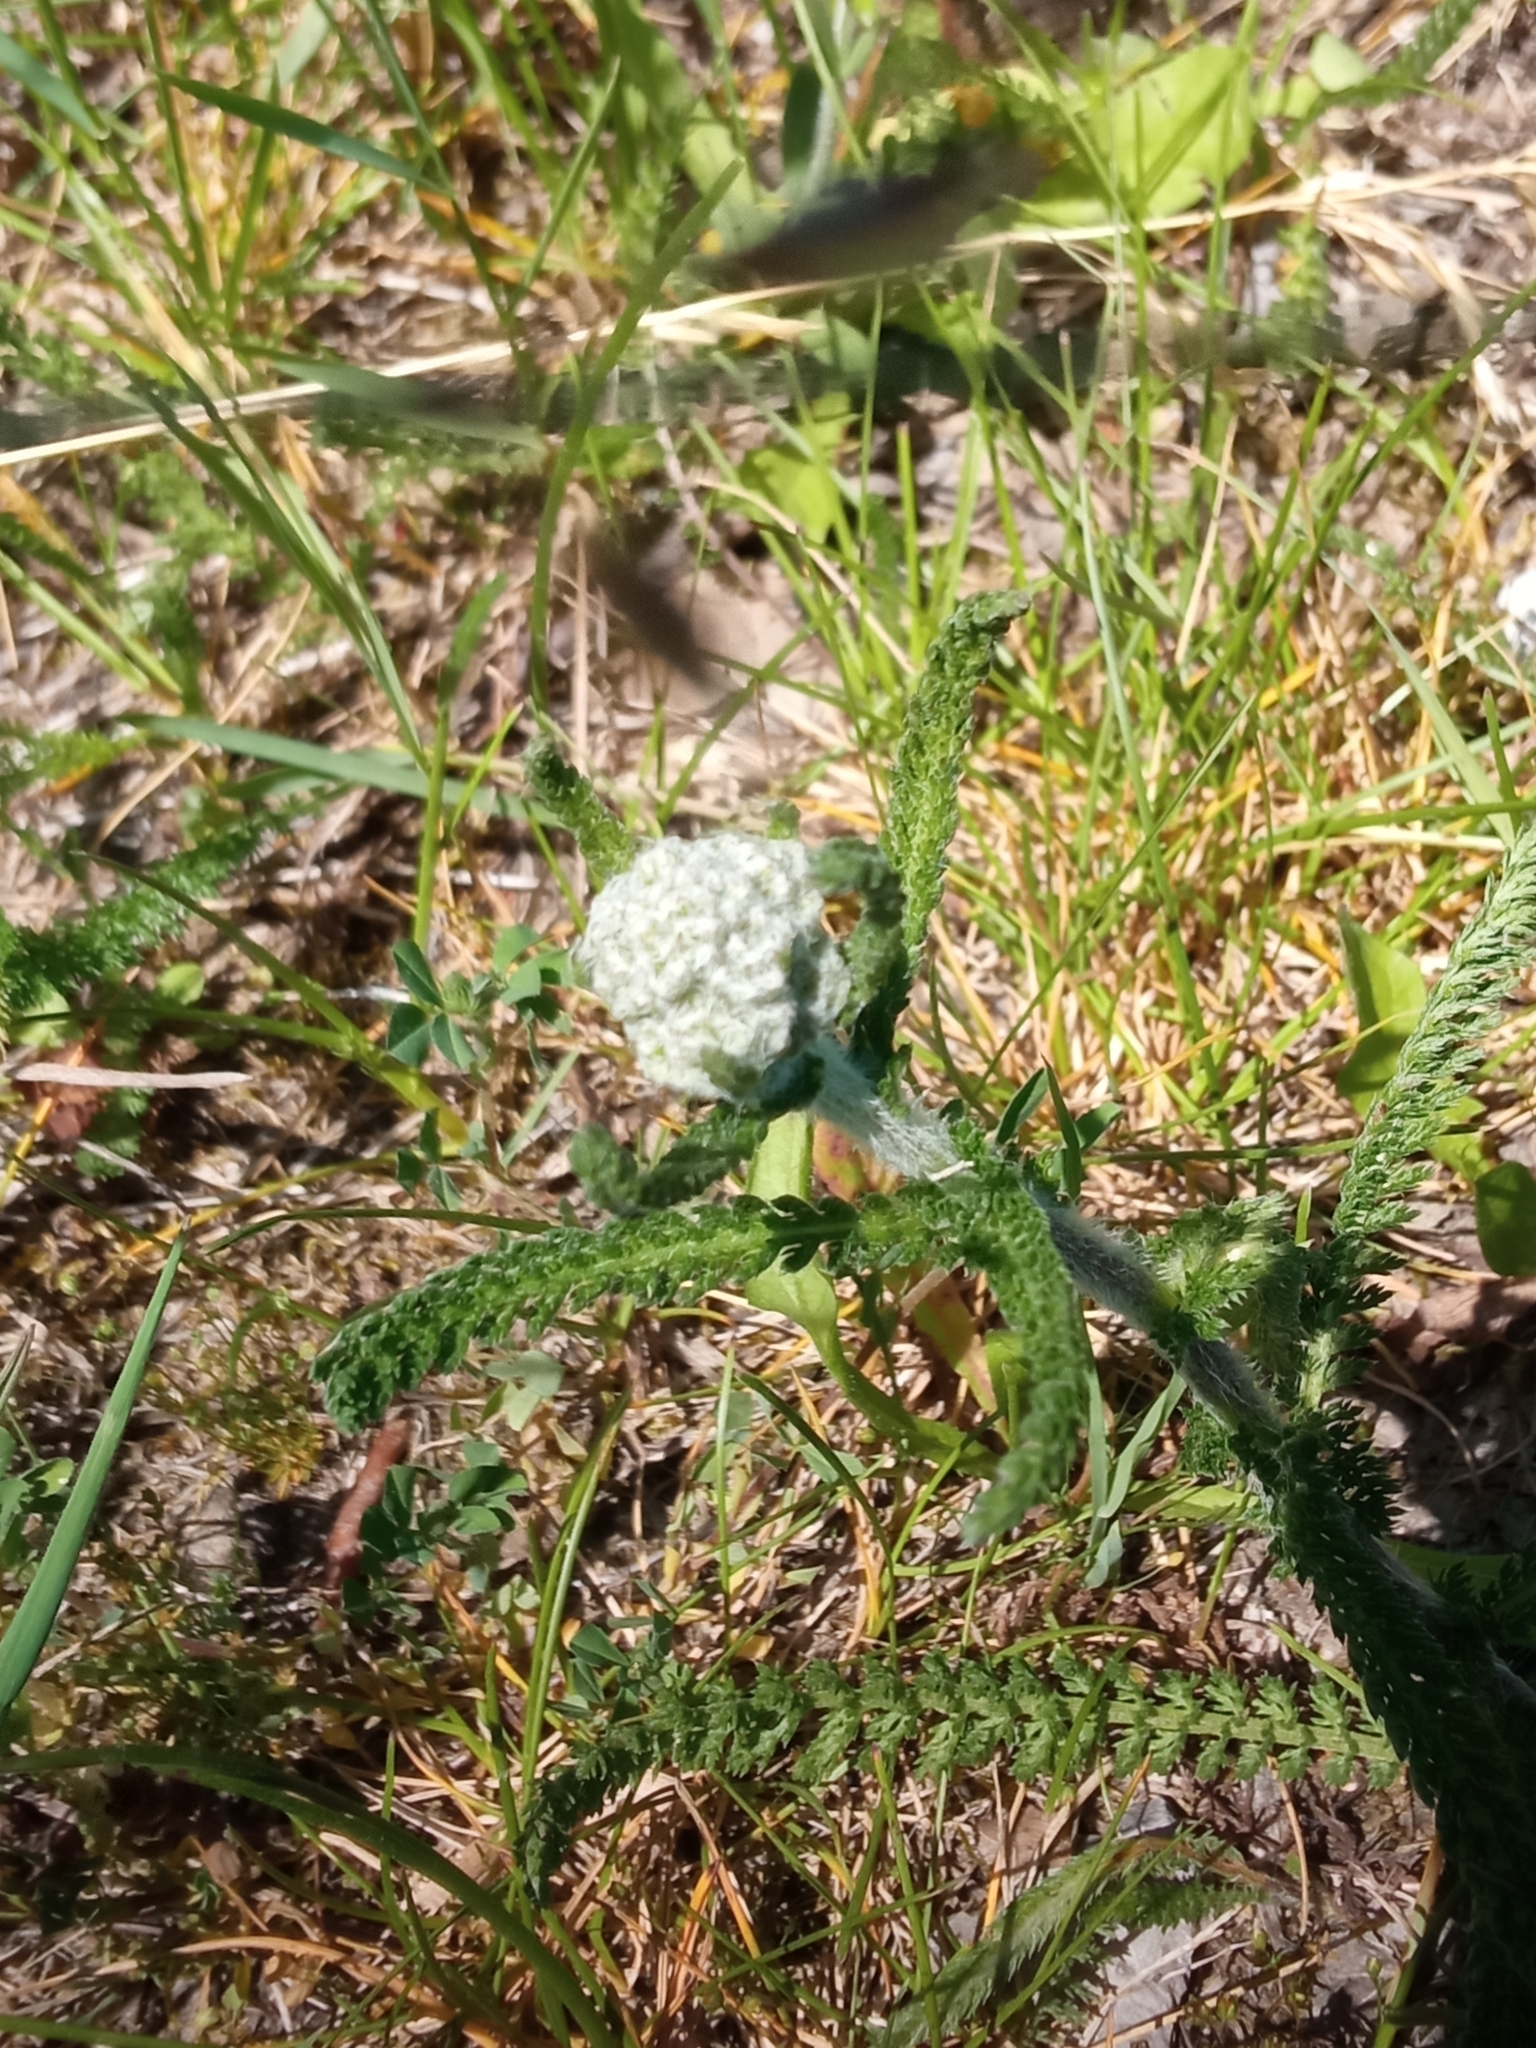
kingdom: Plantae
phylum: Tracheophyta
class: Magnoliopsida
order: Asterales
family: Asteraceae
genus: Achillea
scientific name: Achillea millefolium
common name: Yarrow
